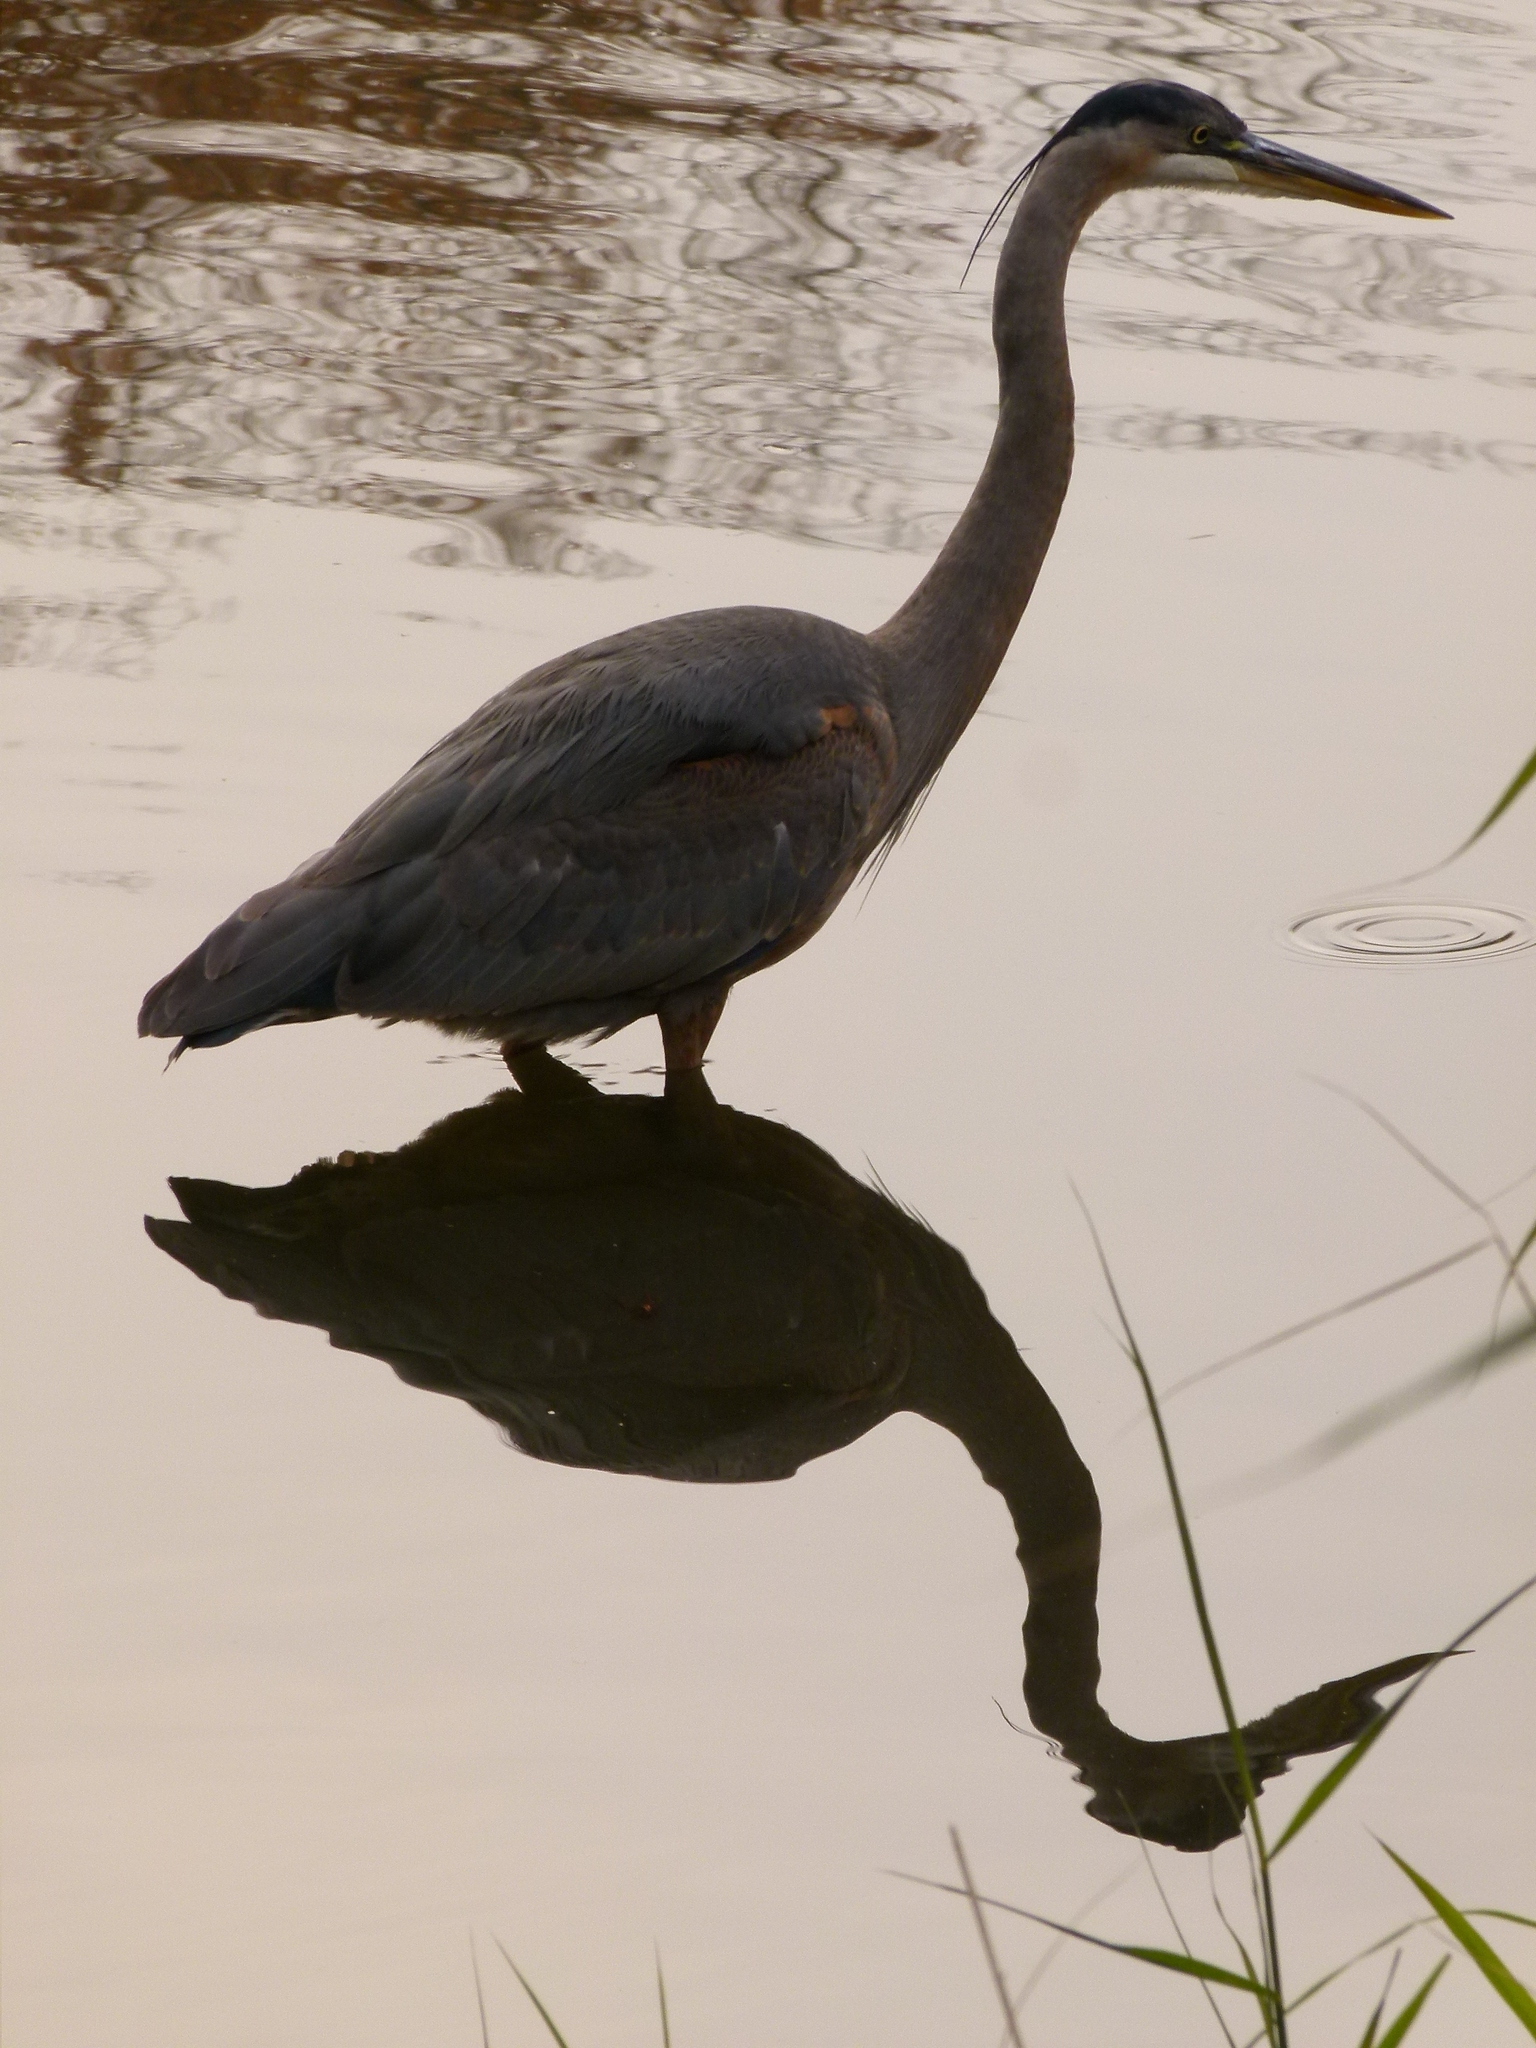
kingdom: Animalia
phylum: Chordata
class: Aves
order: Pelecaniformes
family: Ardeidae
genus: Ardea
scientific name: Ardea herodias
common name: Great blue heron
